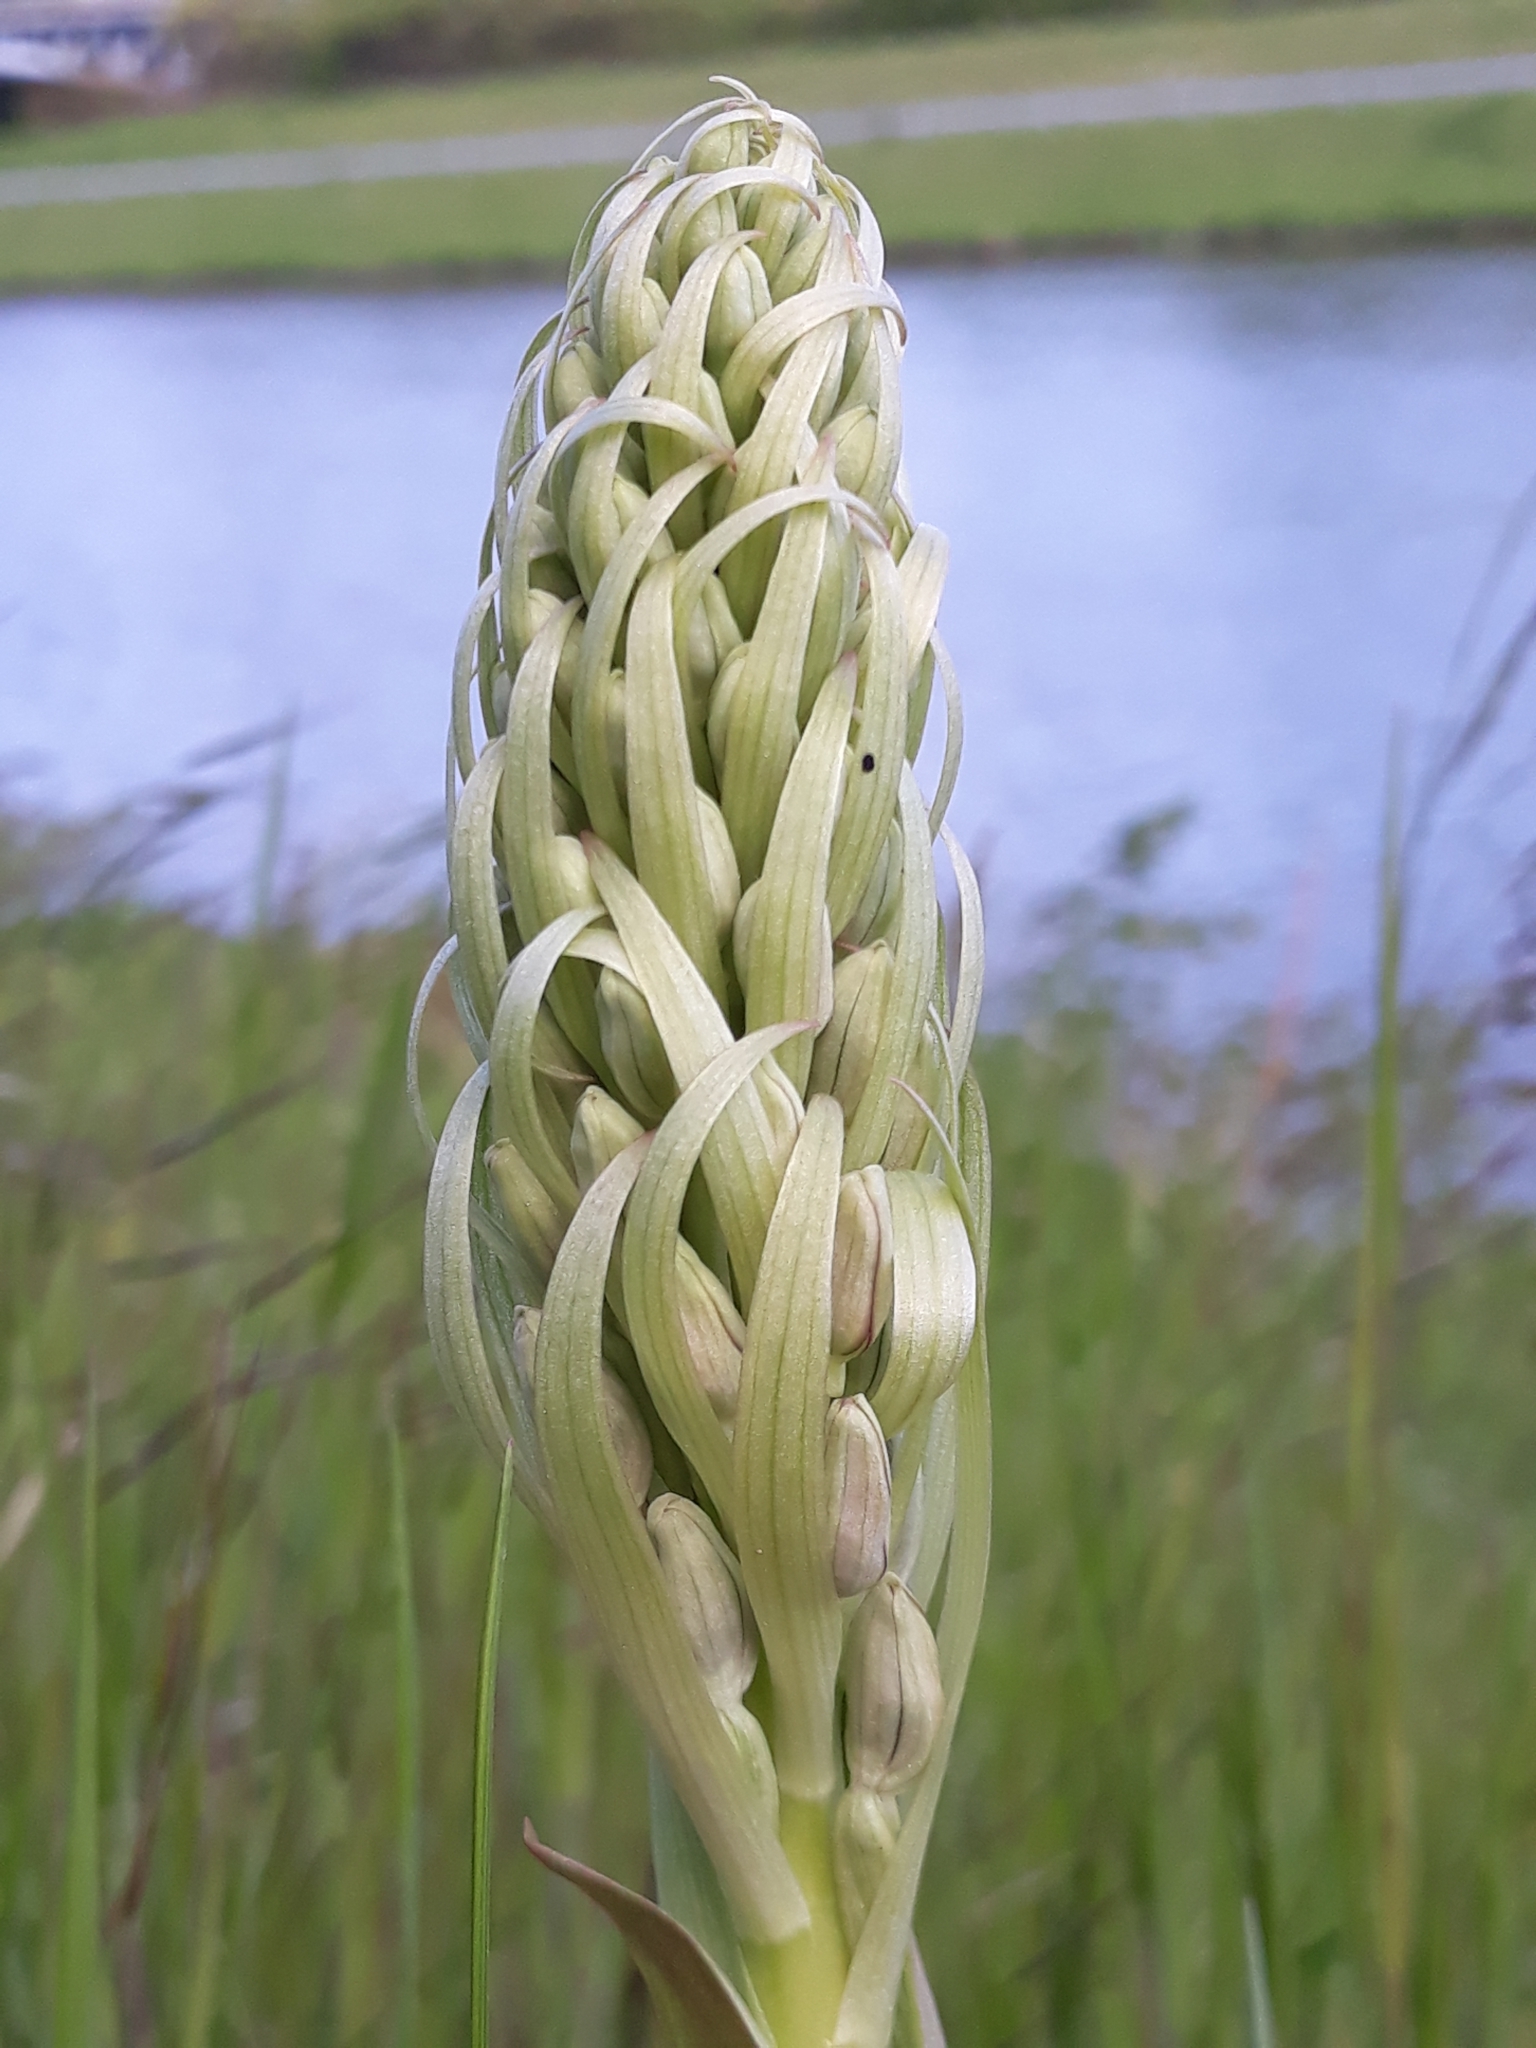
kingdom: Plantae
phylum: Tracheophyta
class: Liliopsida
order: Asparagales
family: Orchidaceae
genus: Himantoglossum
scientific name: Himantoglossum hircinum
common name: Lizard orchid
